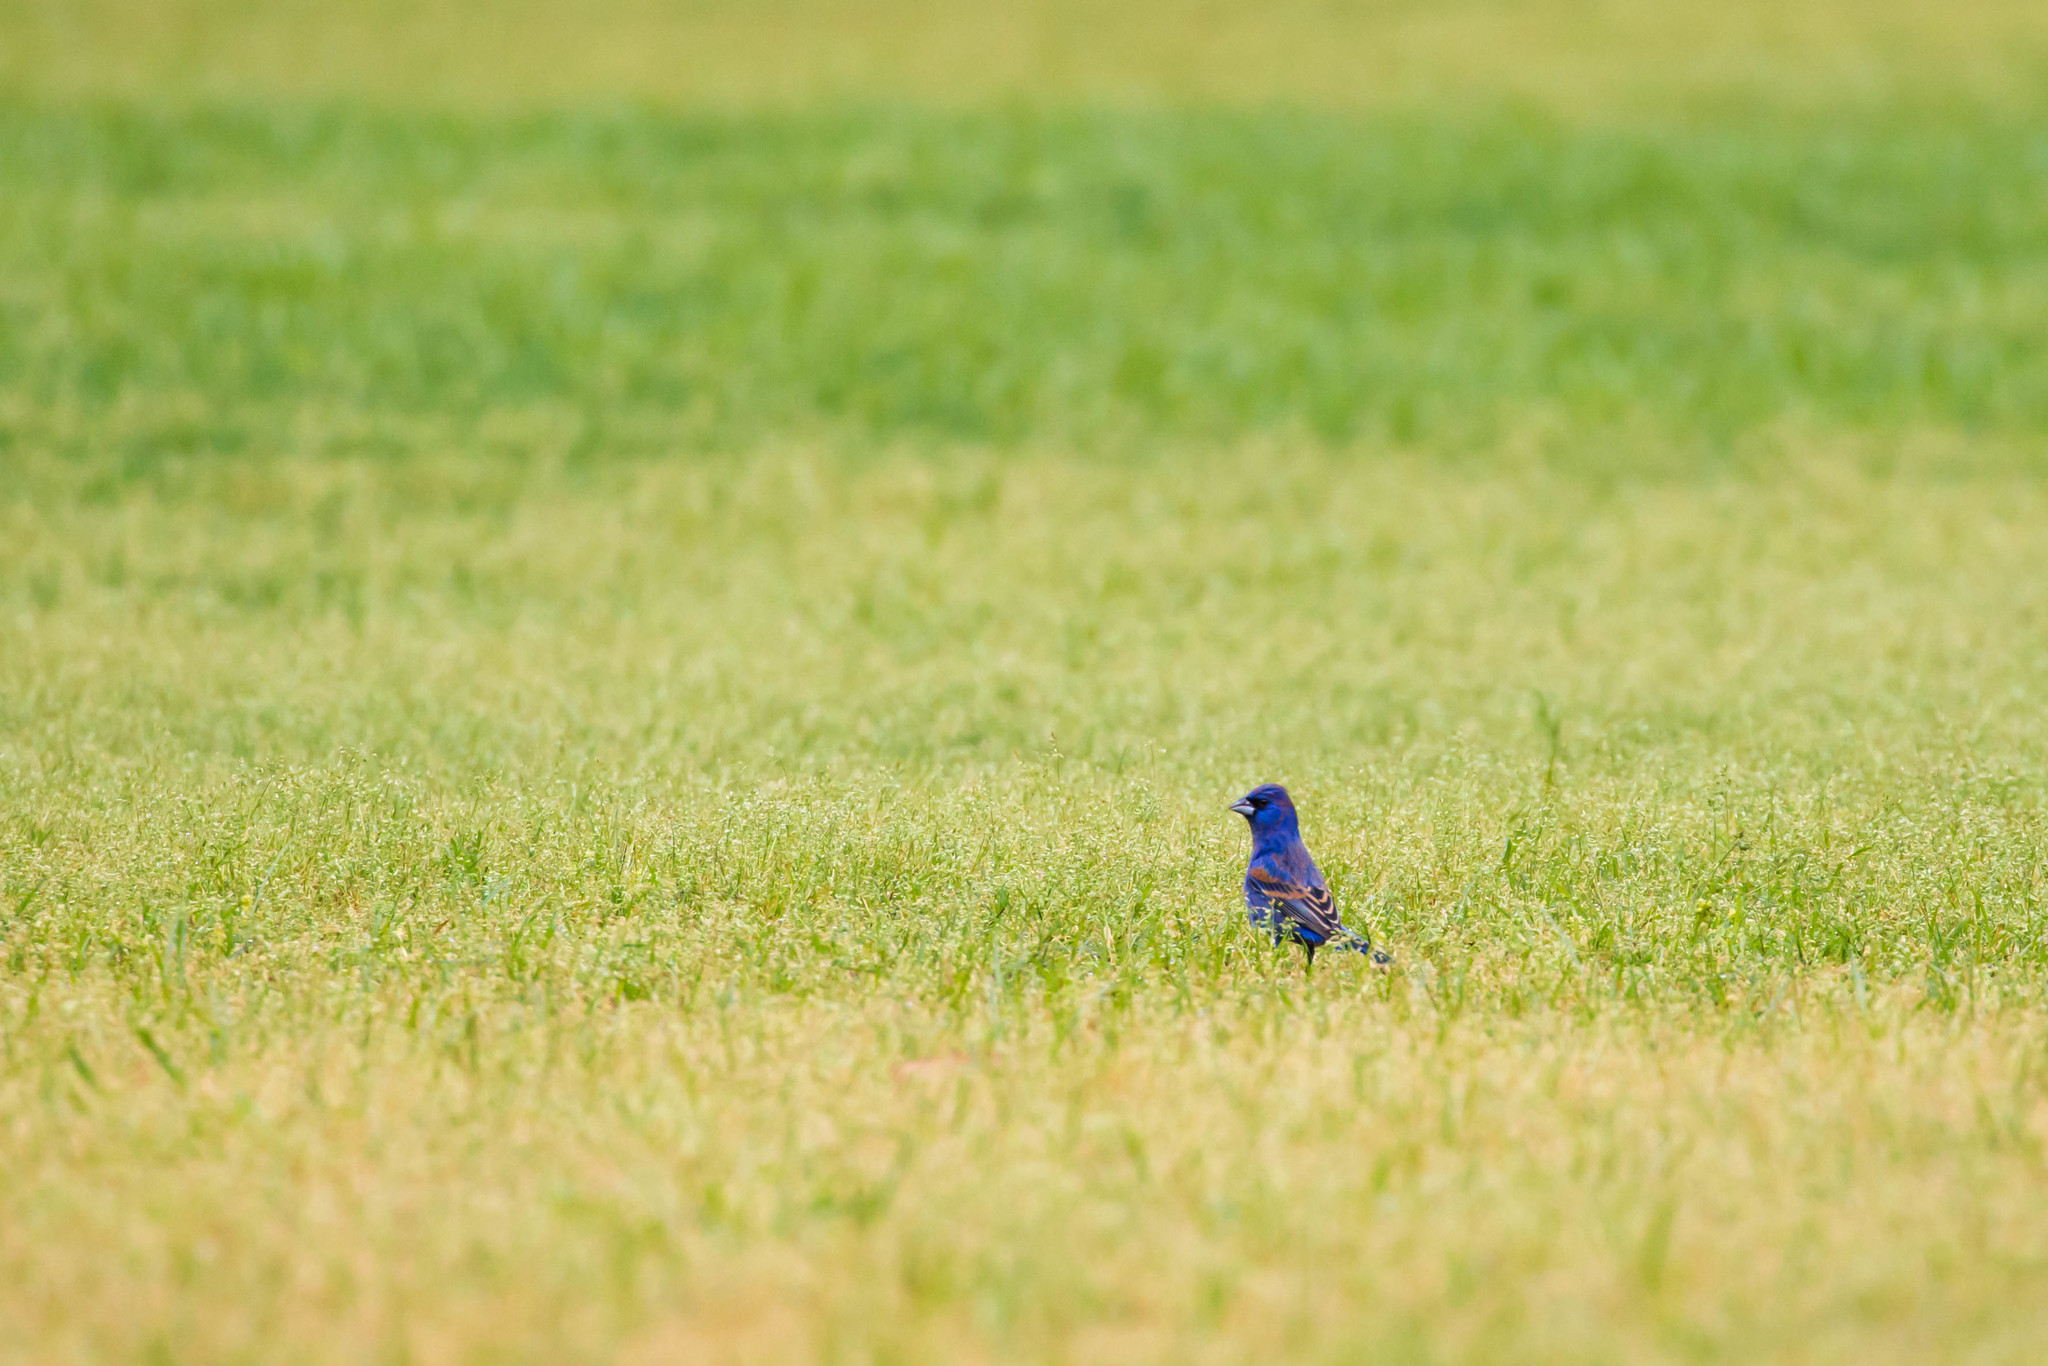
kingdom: Animalia
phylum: Chordata
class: Aves
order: Passeriformes
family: Cardinalidae
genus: Passerina
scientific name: Passerina caerulea
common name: Blue grosbeak
